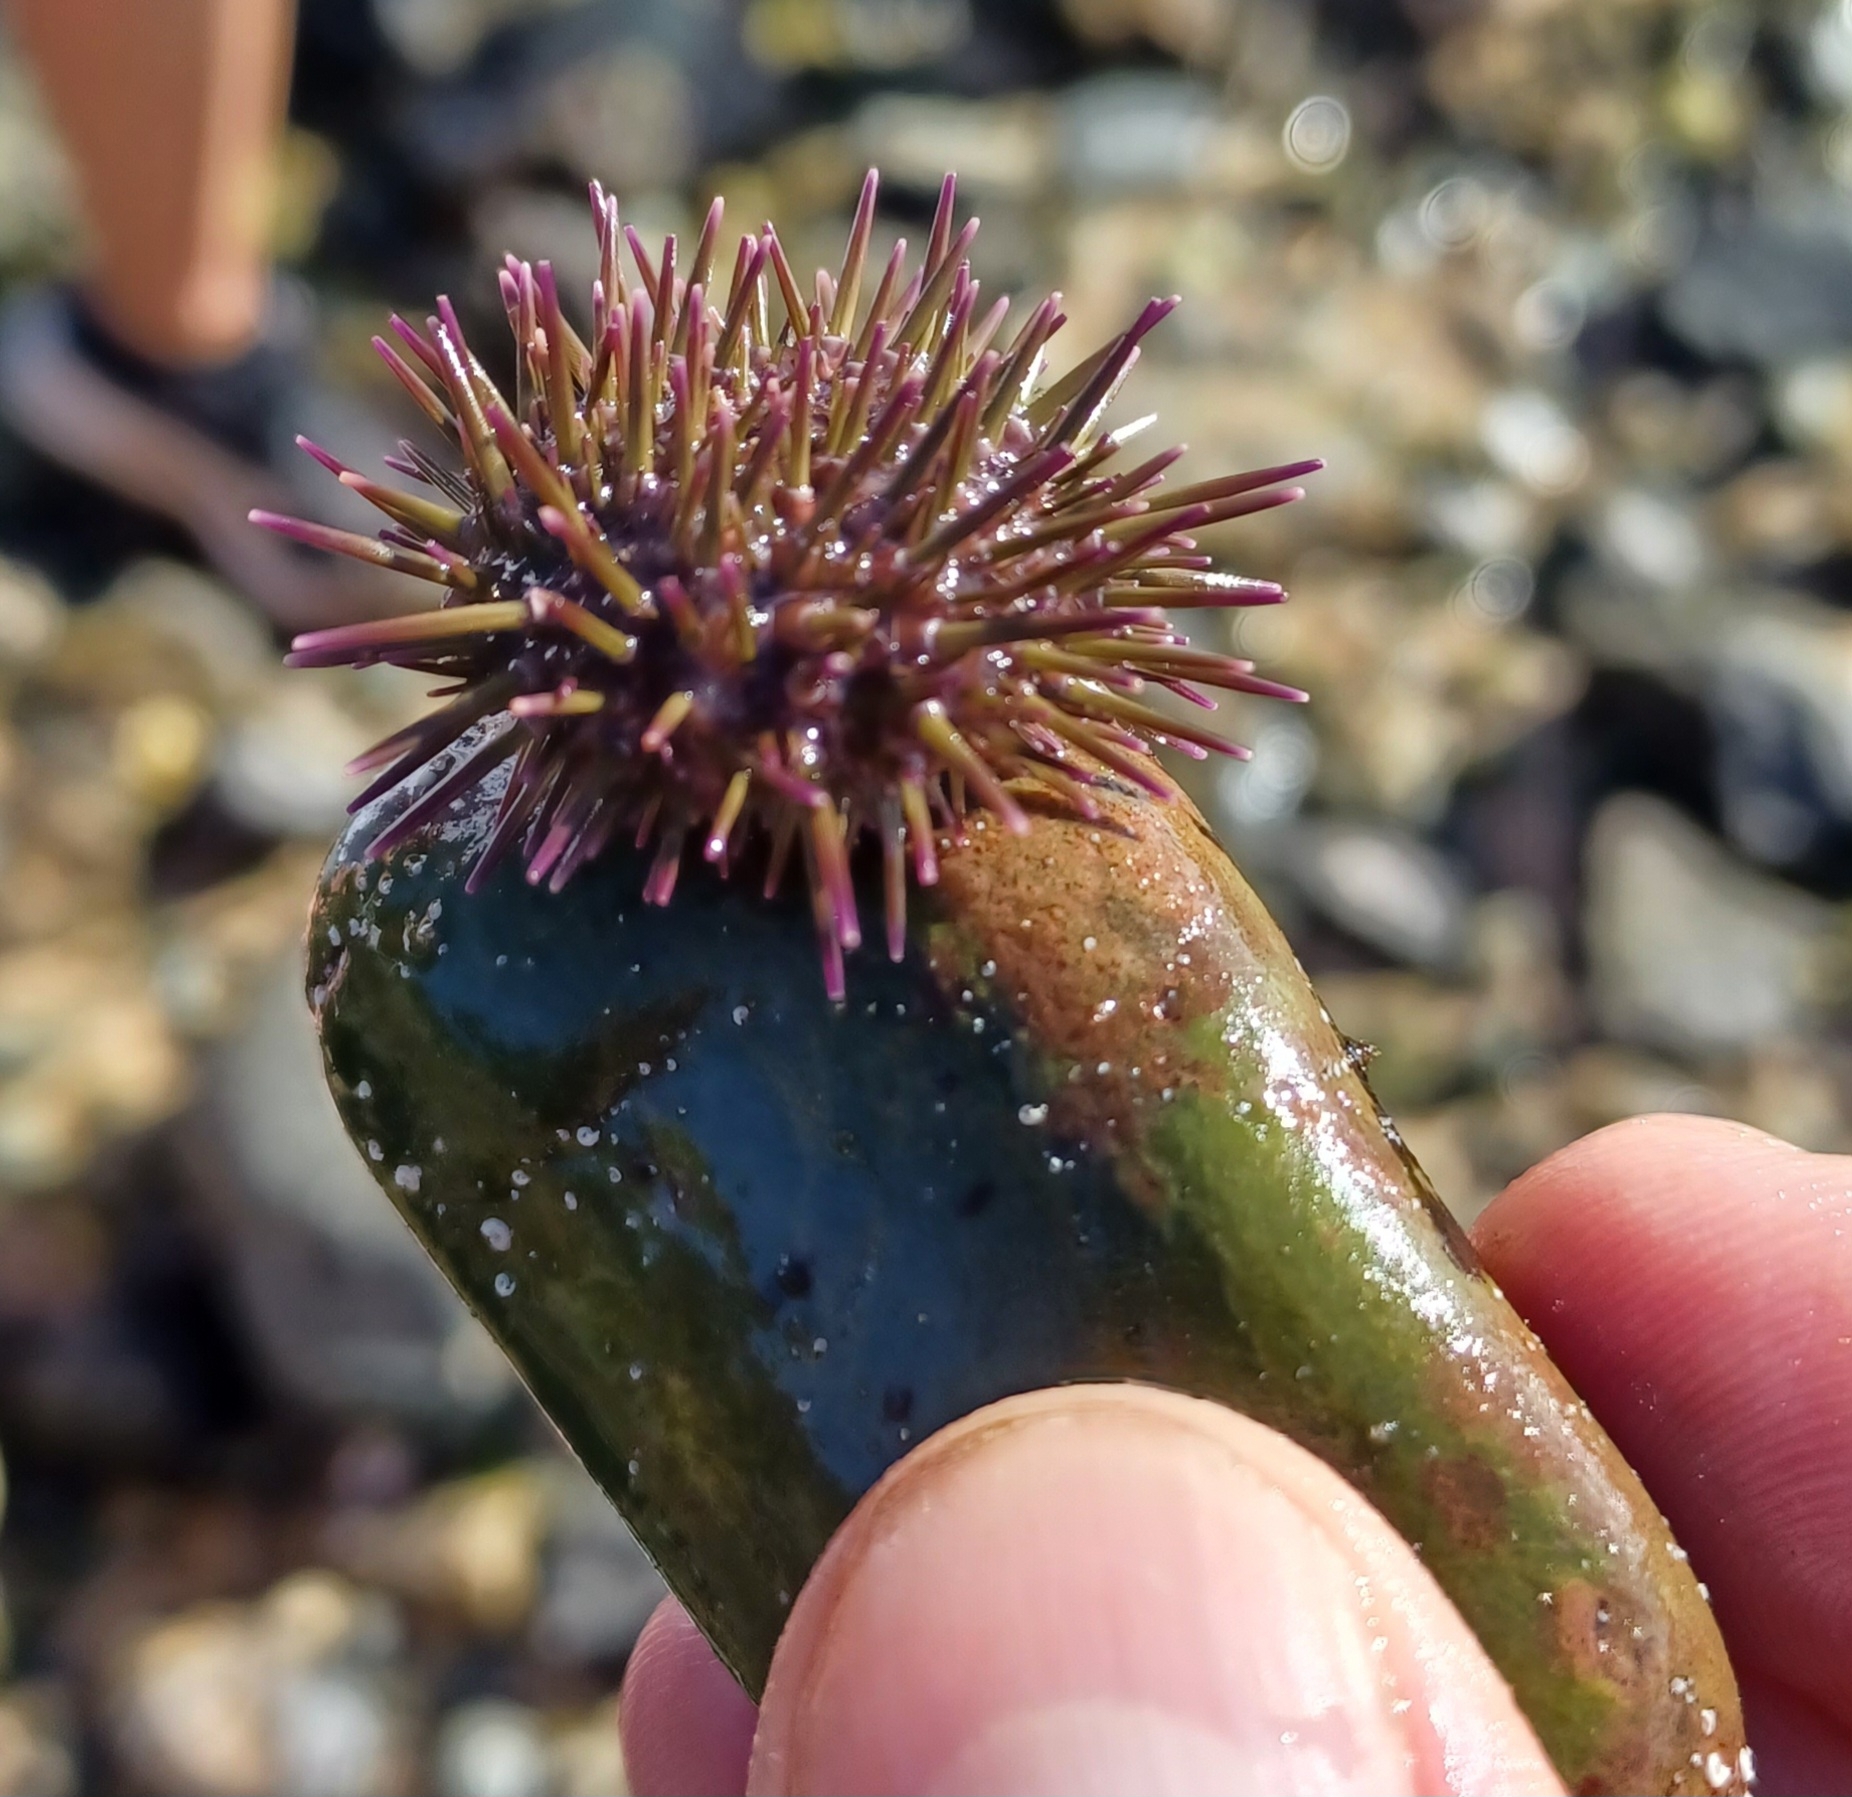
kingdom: Animalia
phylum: Echinodermata
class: Echinoidea
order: Camarodonta
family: Echinometridae
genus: Heliocidaris
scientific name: Heliocidaris erythrogramma
